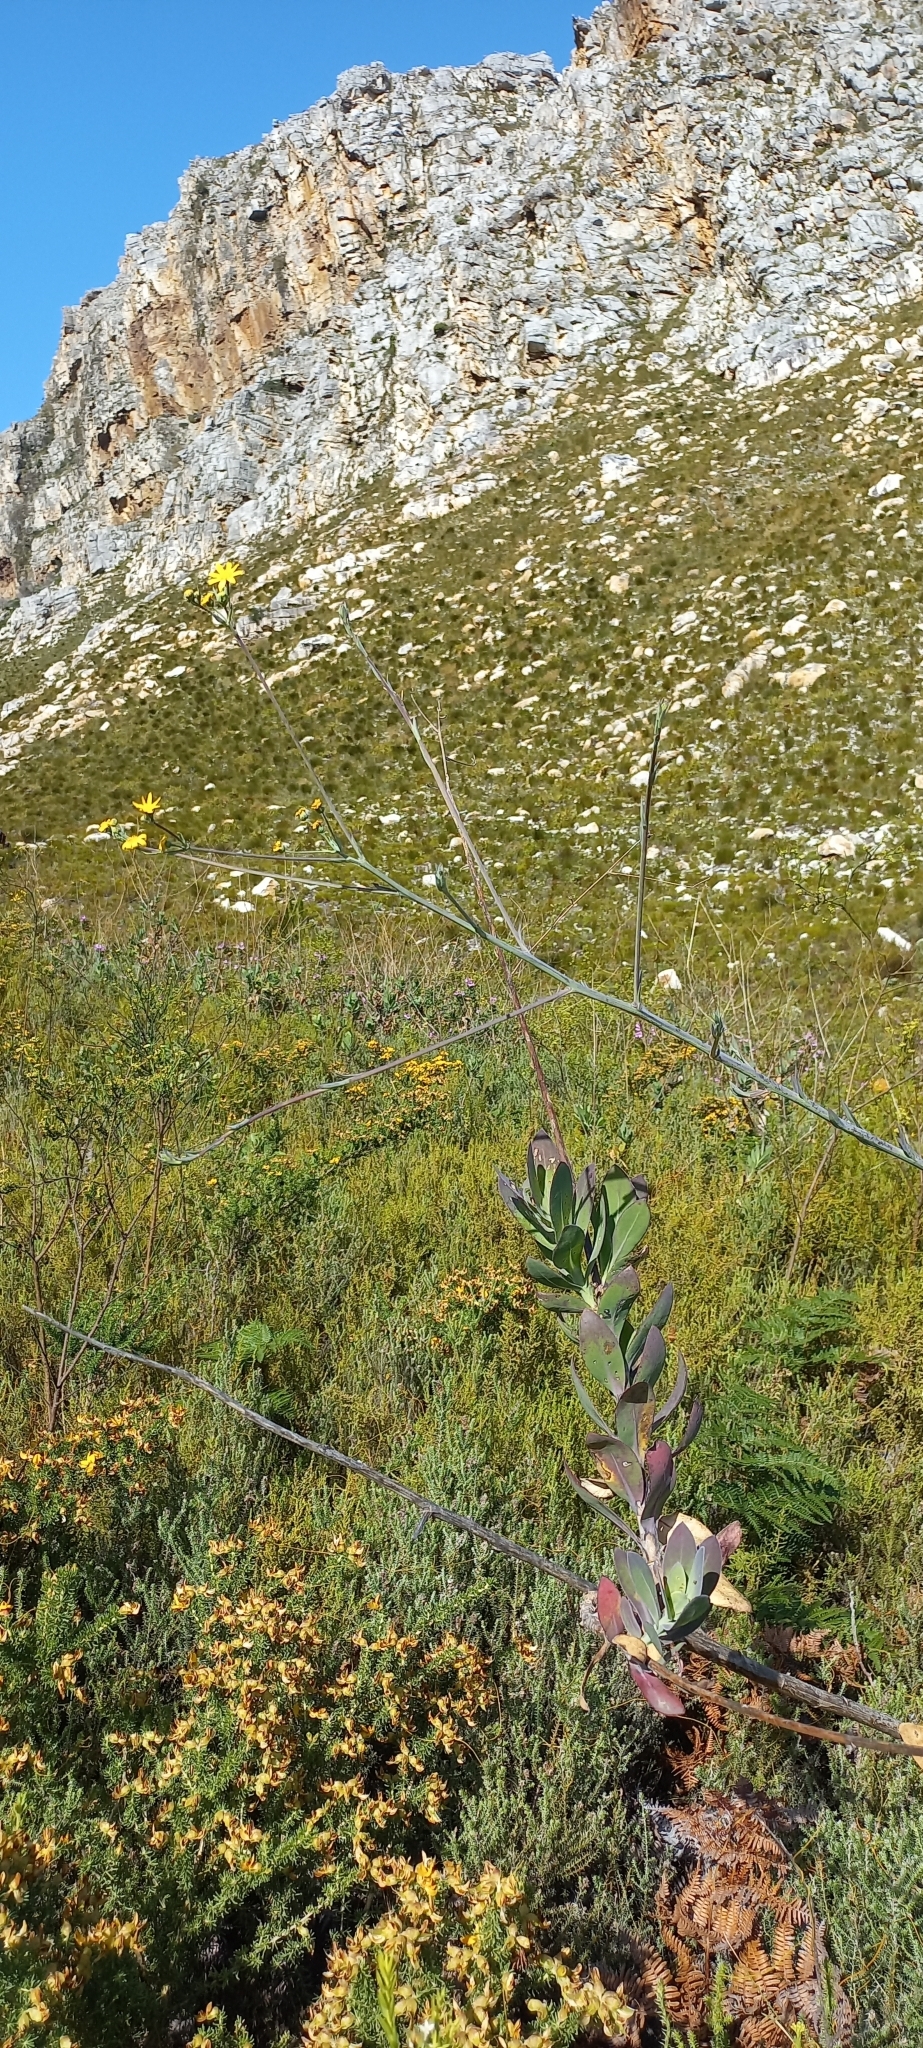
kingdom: Plantae
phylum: Tracheophyta
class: Magnoliopsida
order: Asterales
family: Asteraceae
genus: Othonna
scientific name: Othonna quinquedentata
